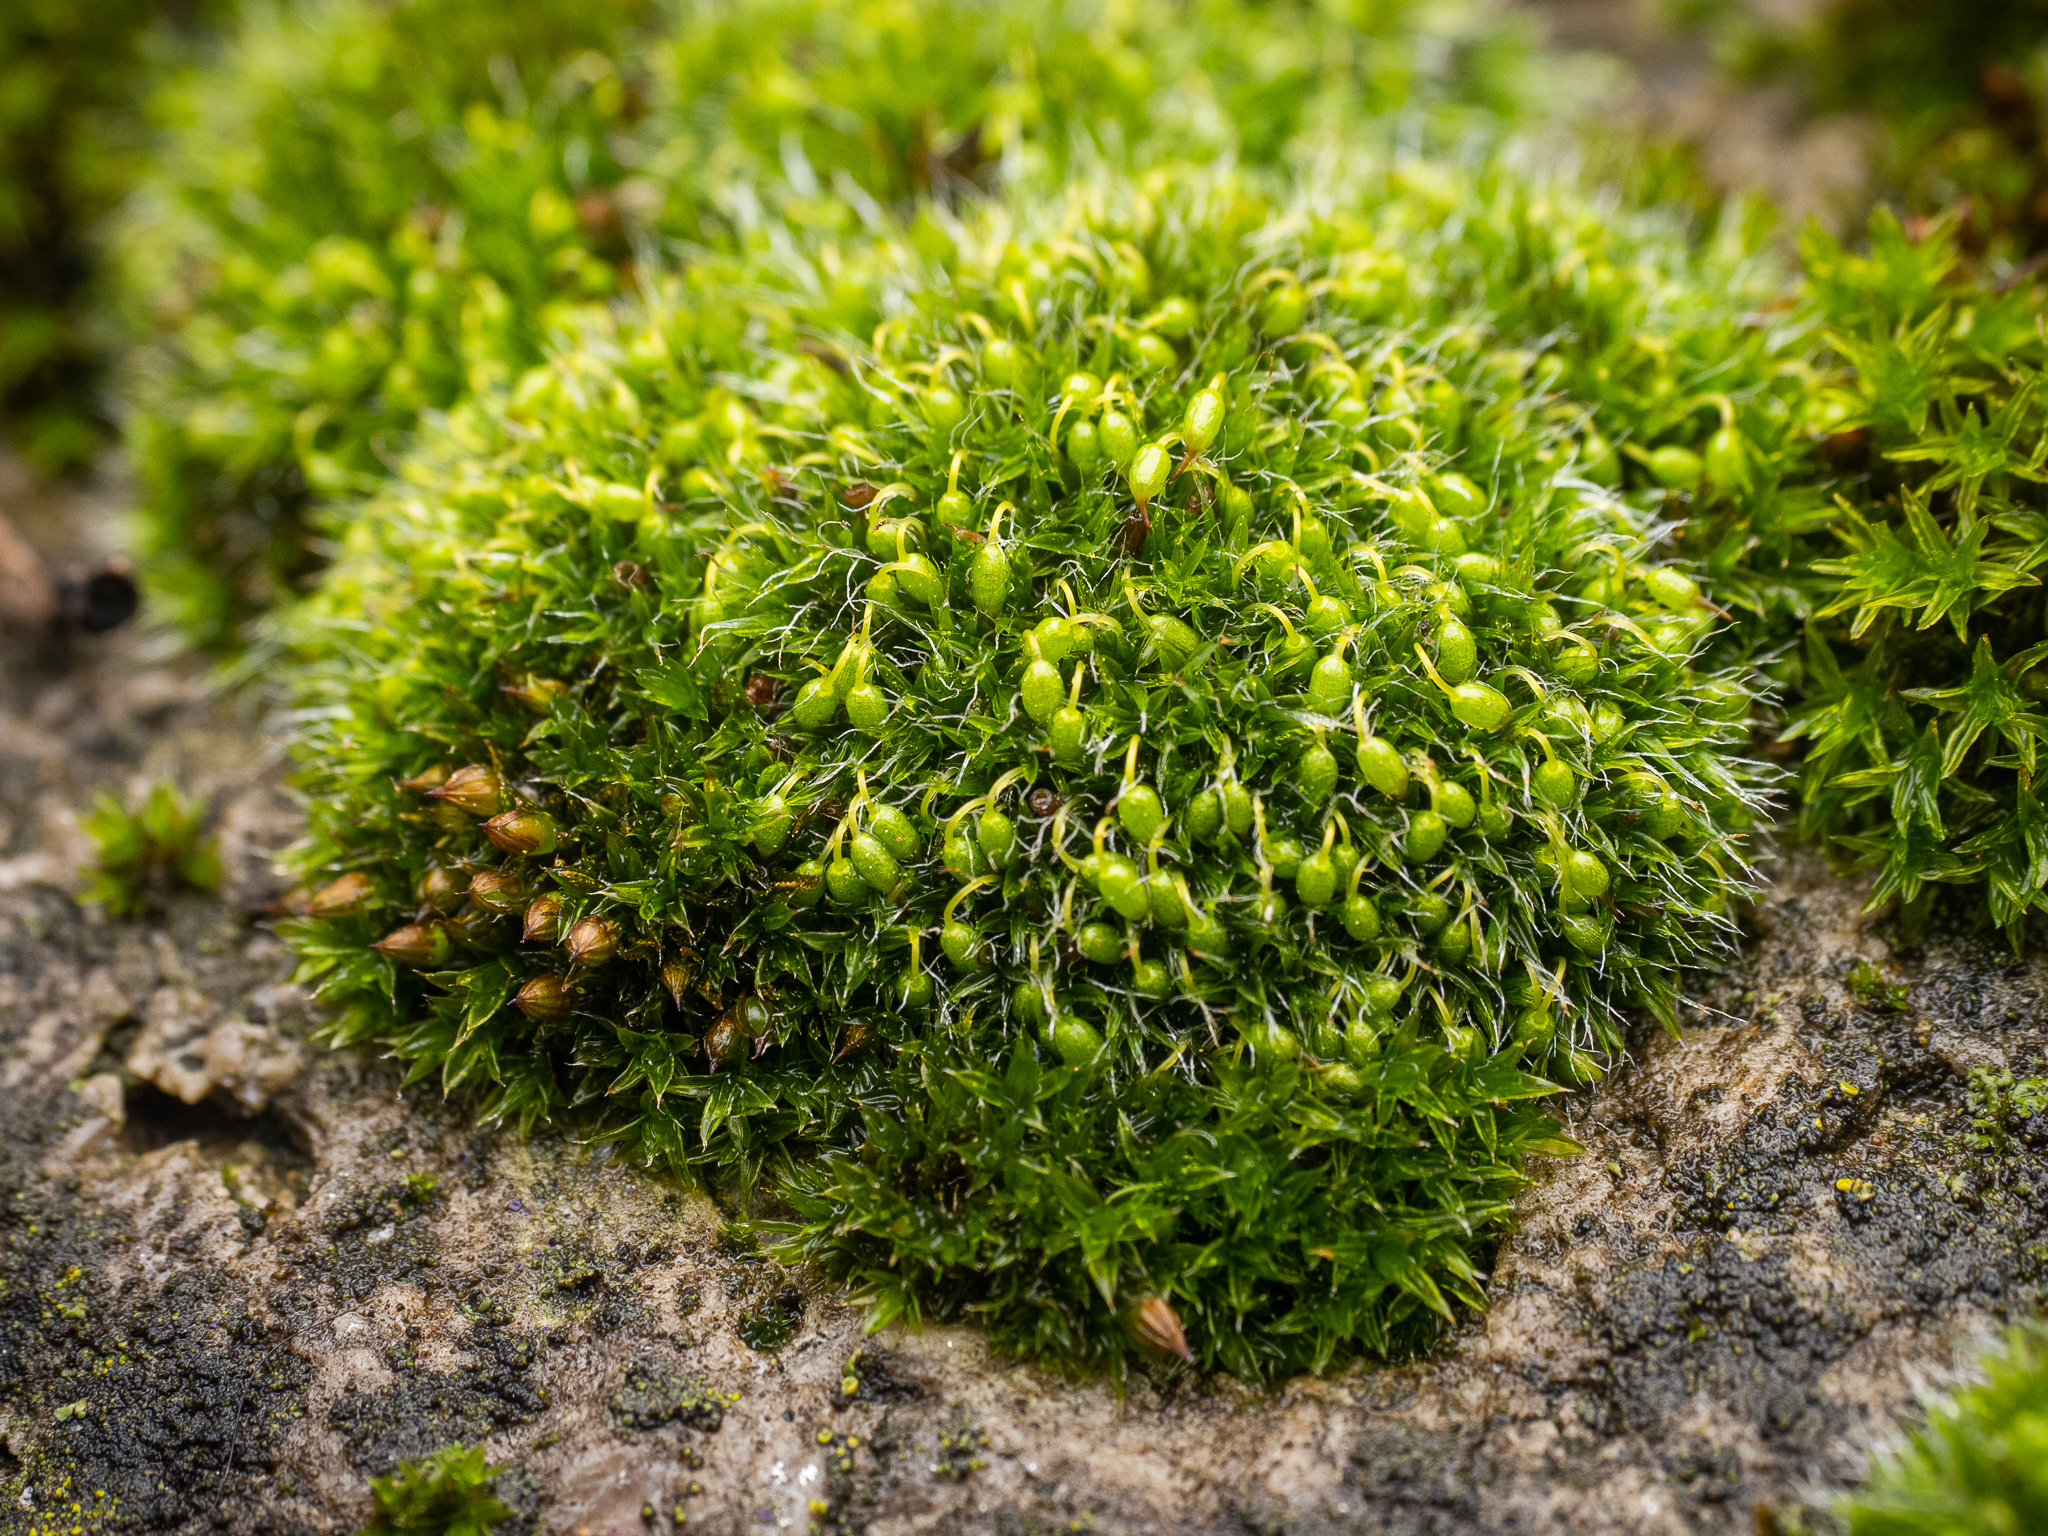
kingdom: Plantae
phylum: Bryophyta
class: Bryopsida
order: Grimmiales
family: Grimmiaceae
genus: Grimmia
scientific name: Grimmia pulvinata
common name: Grey-cushioned grimmia
